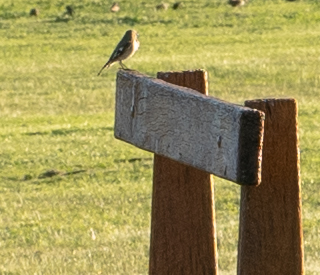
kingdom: Animalia
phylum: Chordata
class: Aves
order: Passeriformes
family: Petroicidae
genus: Petroica
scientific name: Petroica phoenicea
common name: Flame robin
